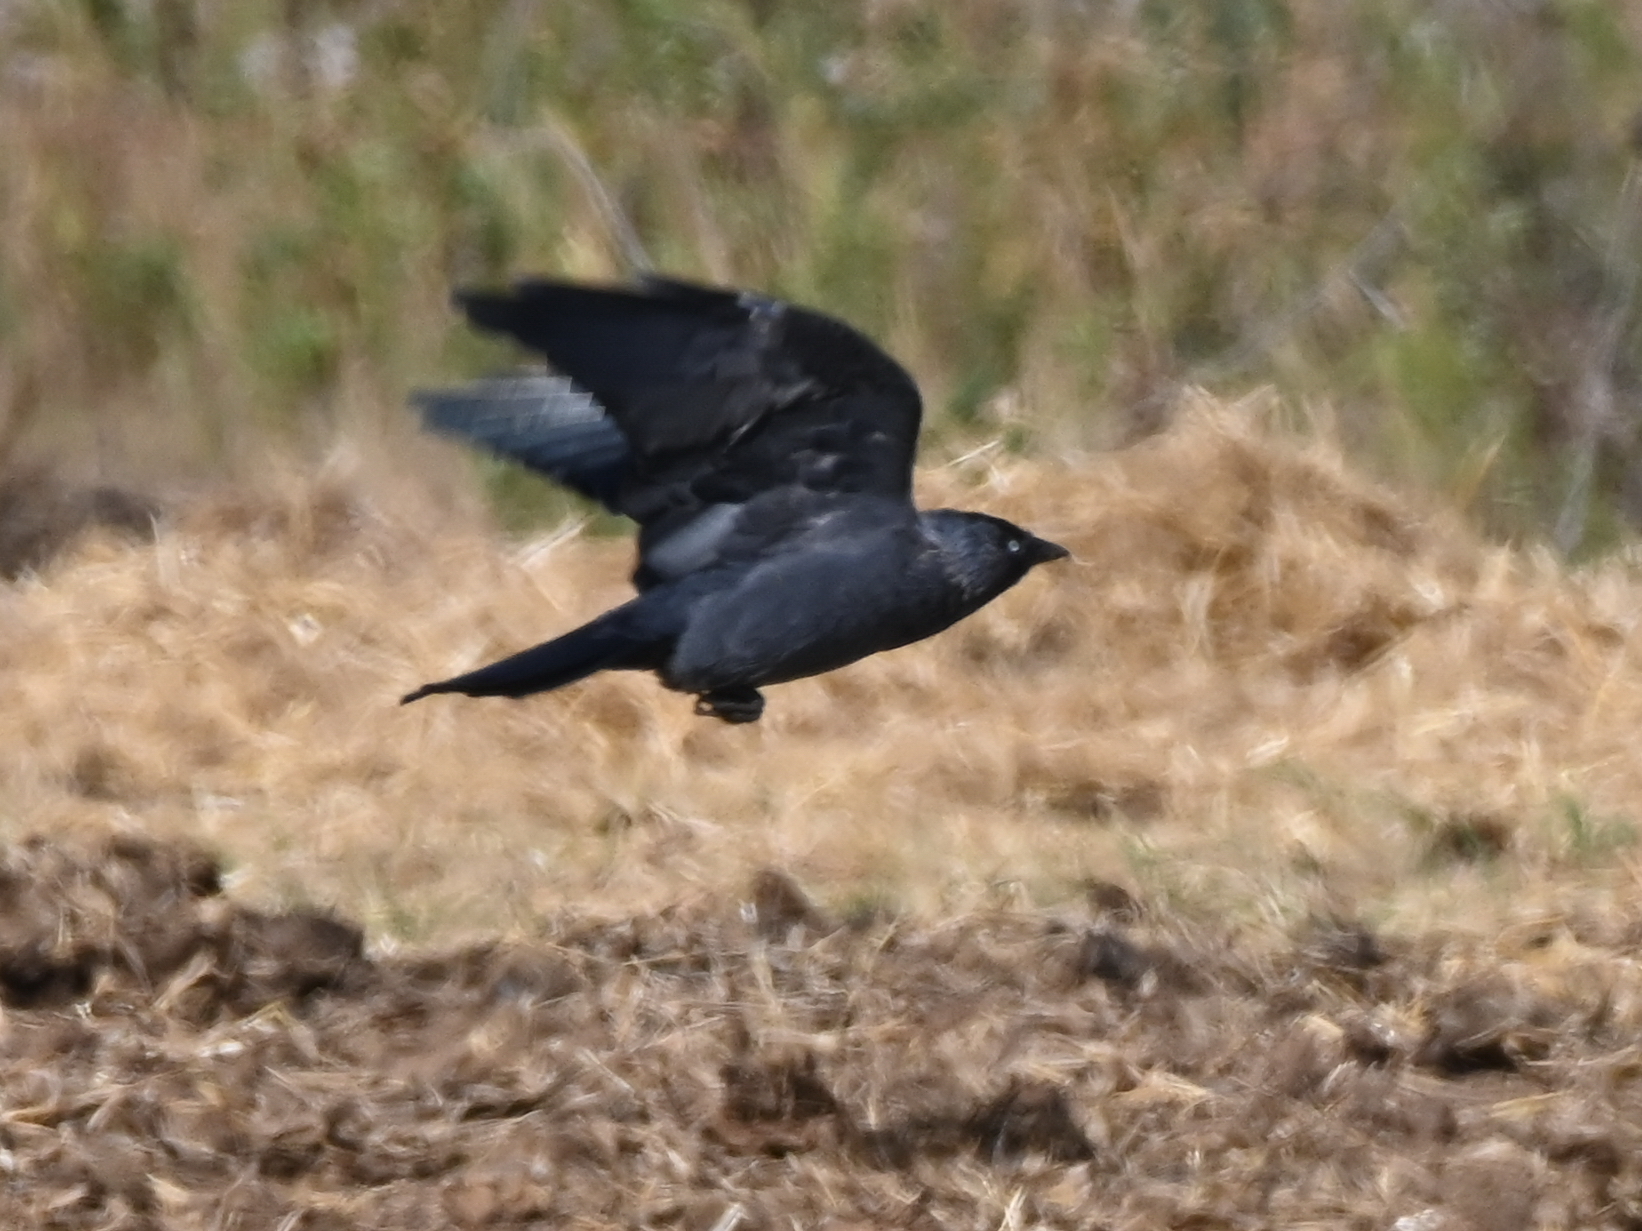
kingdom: Animalia
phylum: Chordata
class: Aves
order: Passeriformes
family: Corvidae
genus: Coloeus
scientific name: Coloeus monedula
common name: Western jackdaw
